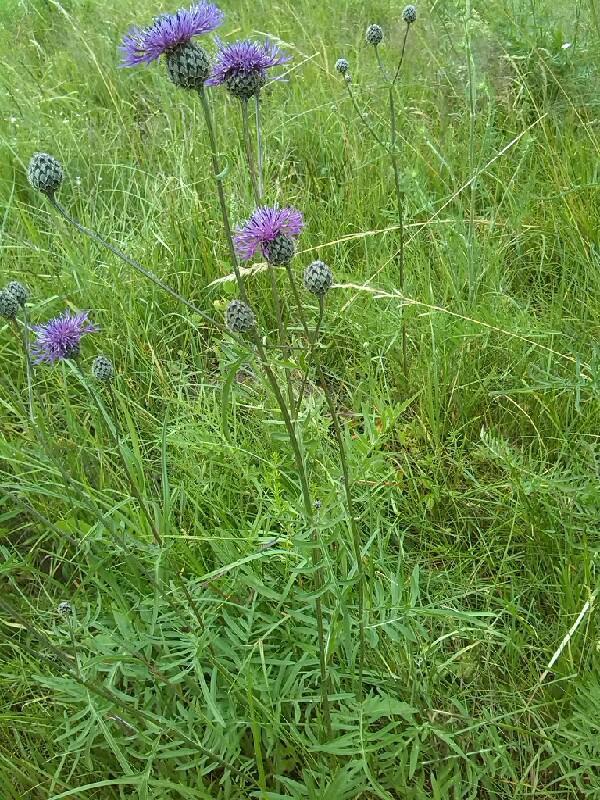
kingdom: Plantae
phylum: Tracheophyta
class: Magnoliopsida
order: Asterales
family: Asteraceae
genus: Centaurea
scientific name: Centaurea scabiosa
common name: Greater knapweed
